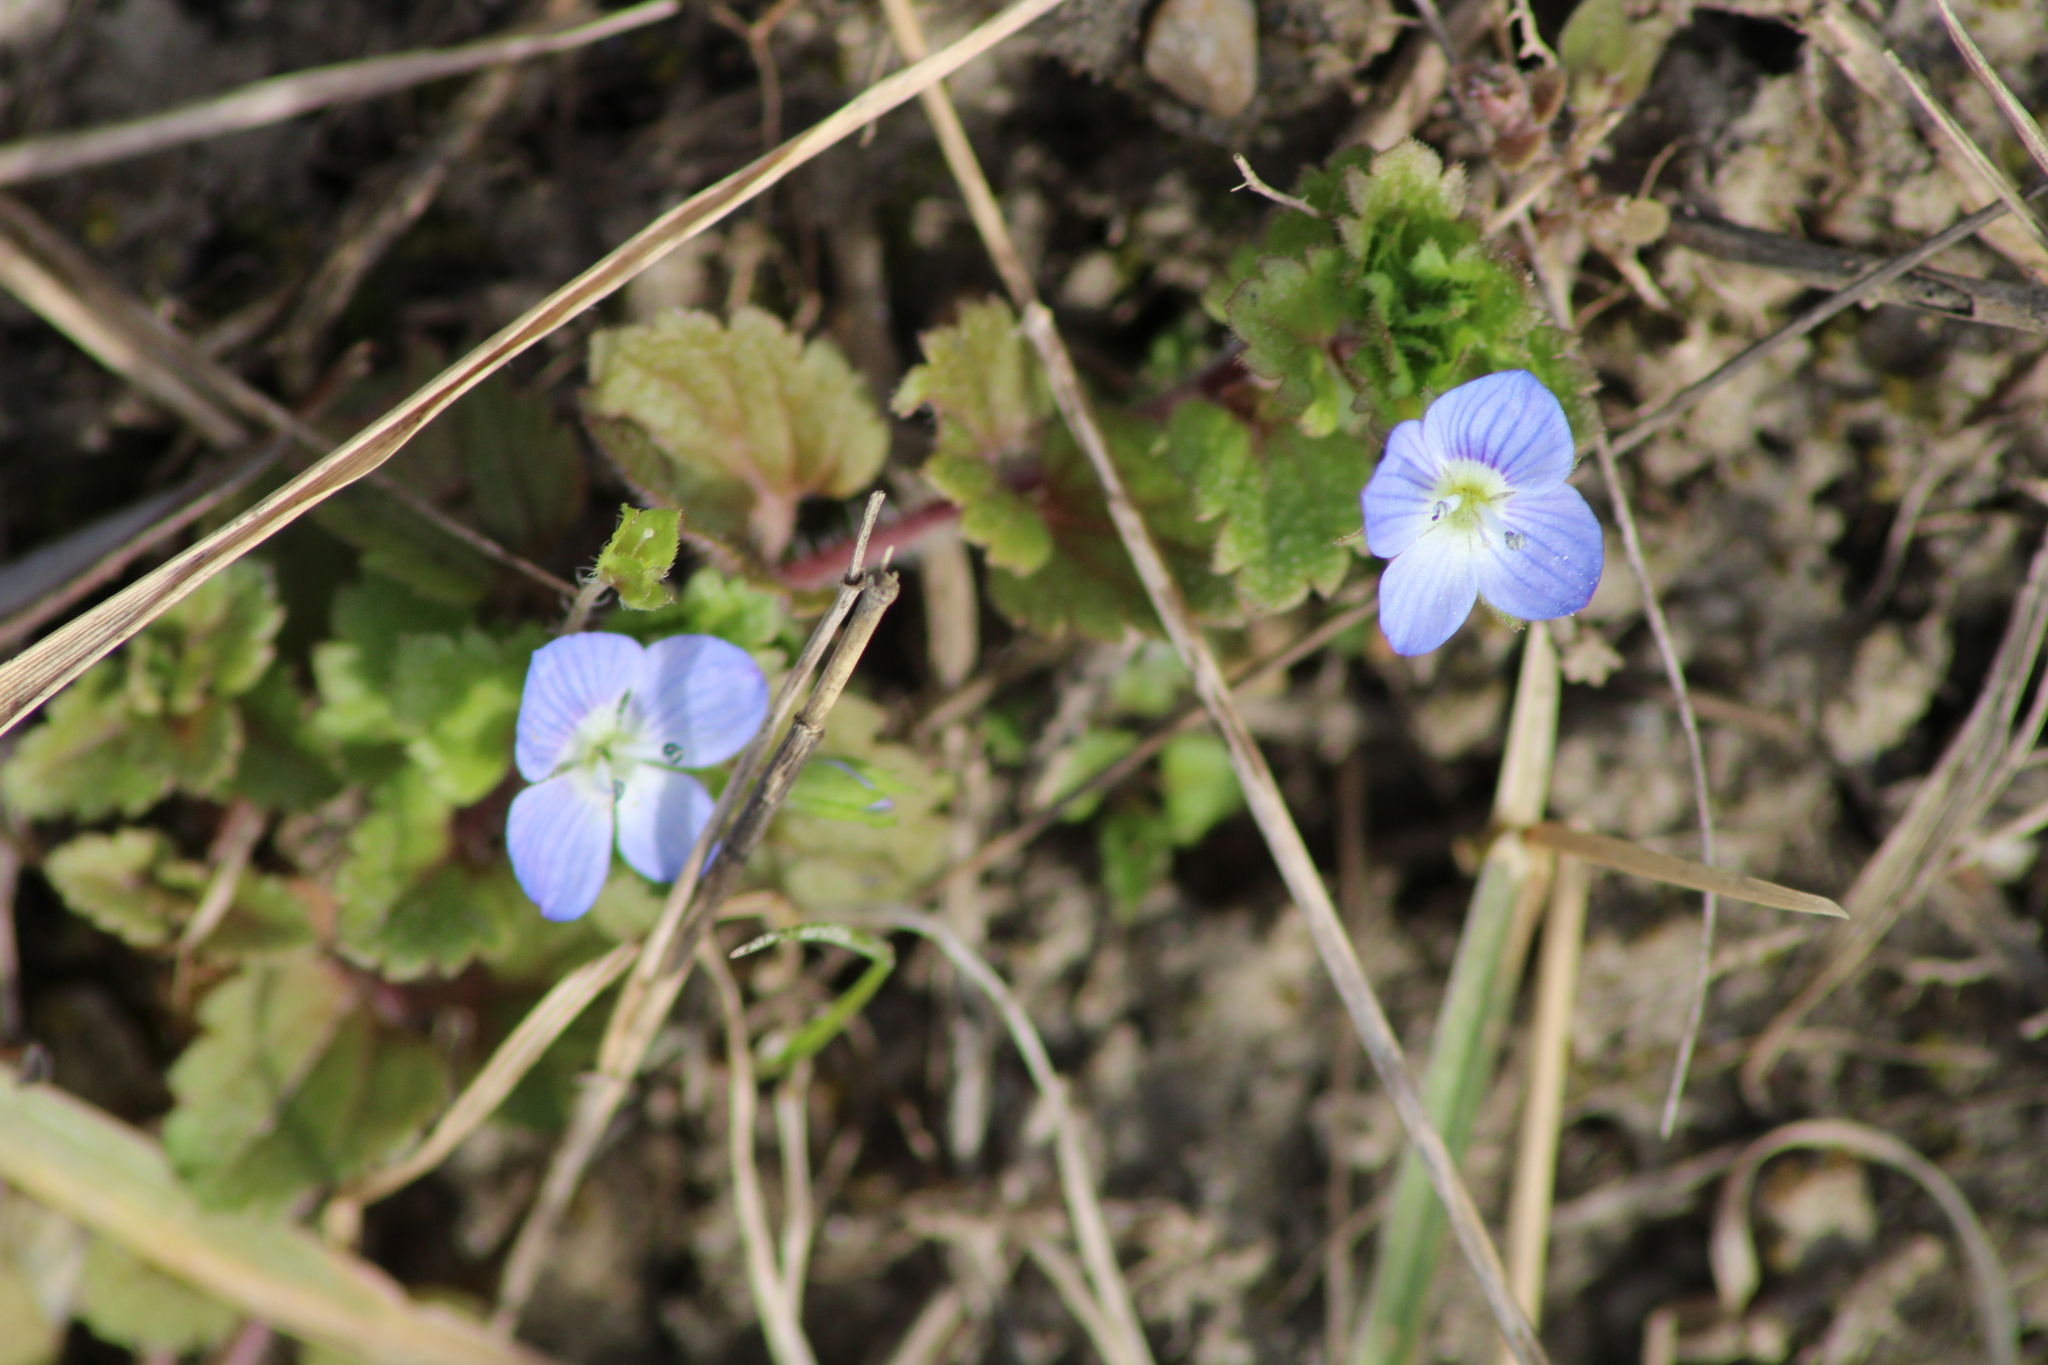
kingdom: Plantae
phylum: Tracheophyta
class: Magnoliopsida
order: Lamiales
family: Plantaginaceae
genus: Veronica
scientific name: Veronica persica
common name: Common field-speedwell
